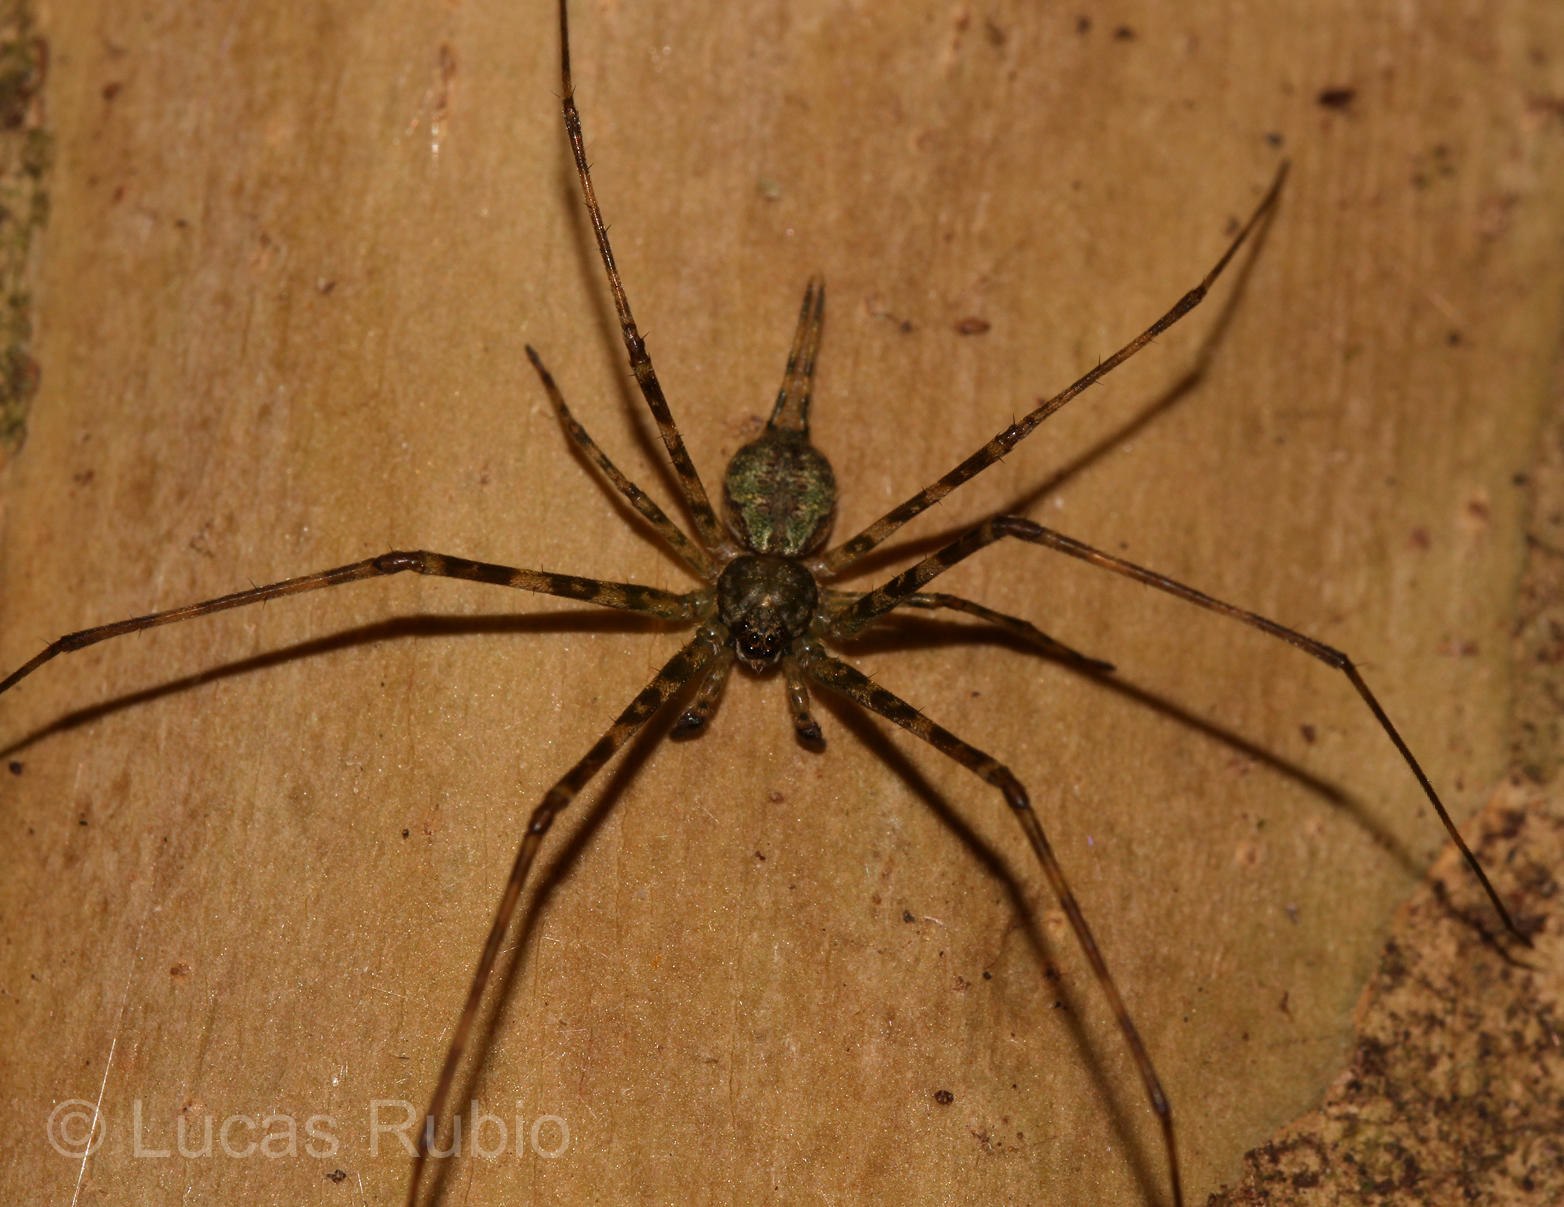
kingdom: Animalia
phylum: Arthropoda
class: Arachnida
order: Araneae
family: Hersiliidae
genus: Ypypuera
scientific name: Ypypuera crucifera
